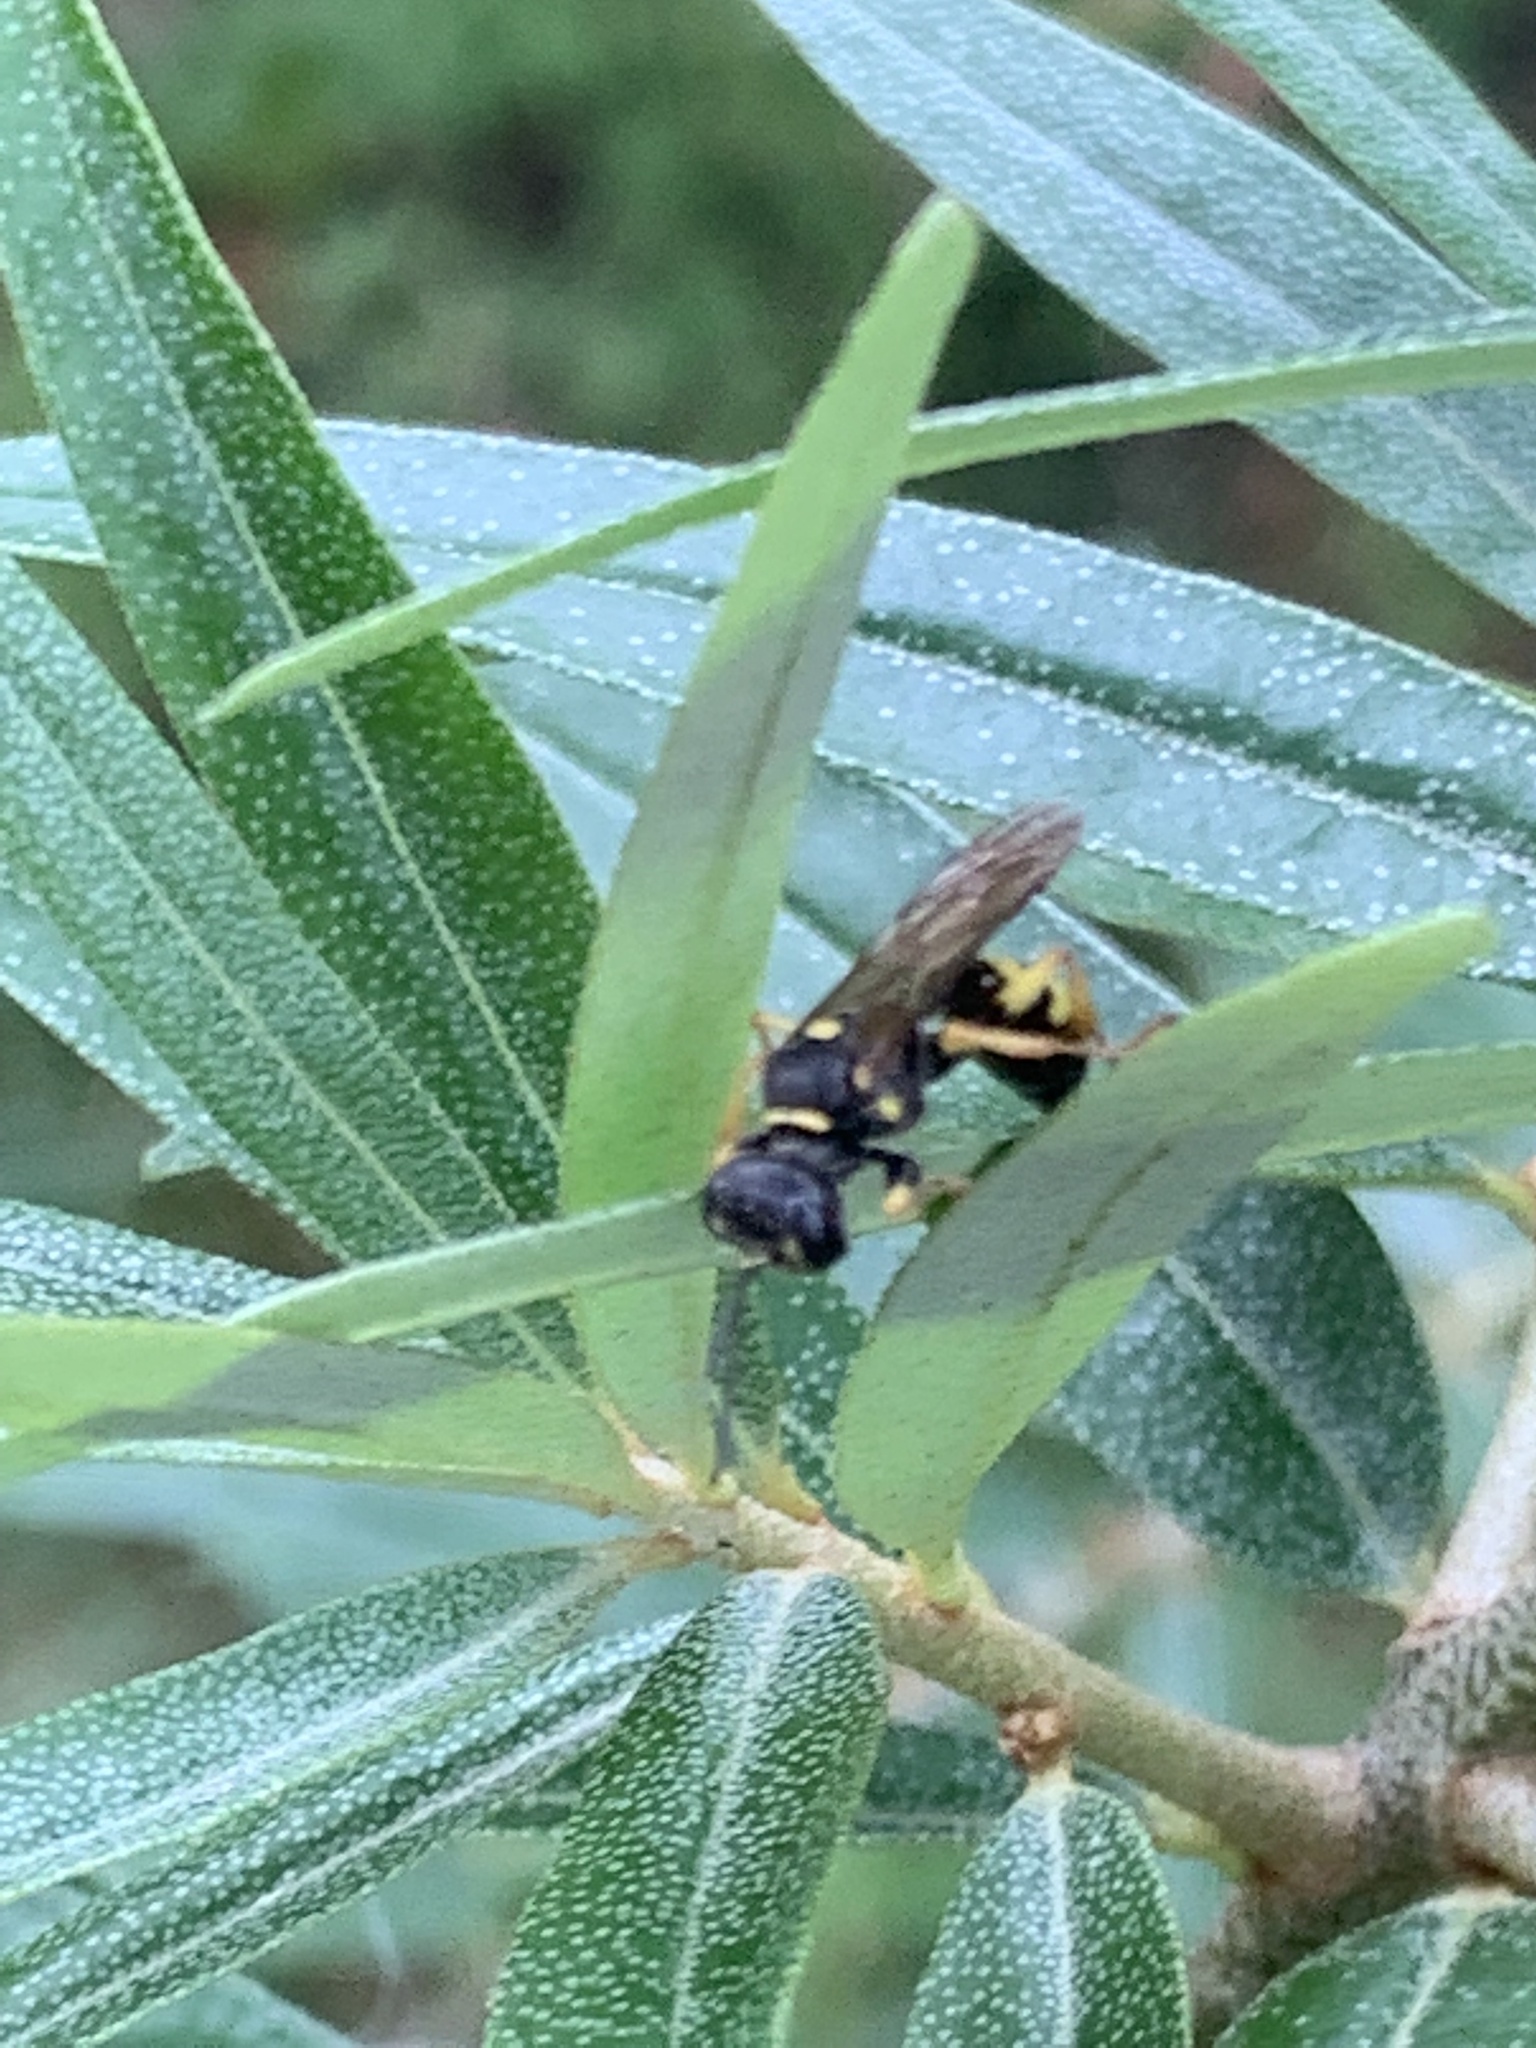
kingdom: Animalia
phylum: Arthropoda
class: Insecta
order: Hymenoptera
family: Crabronidae
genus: Mellinus
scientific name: Mellinus arvensis
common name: Field digger wasp
